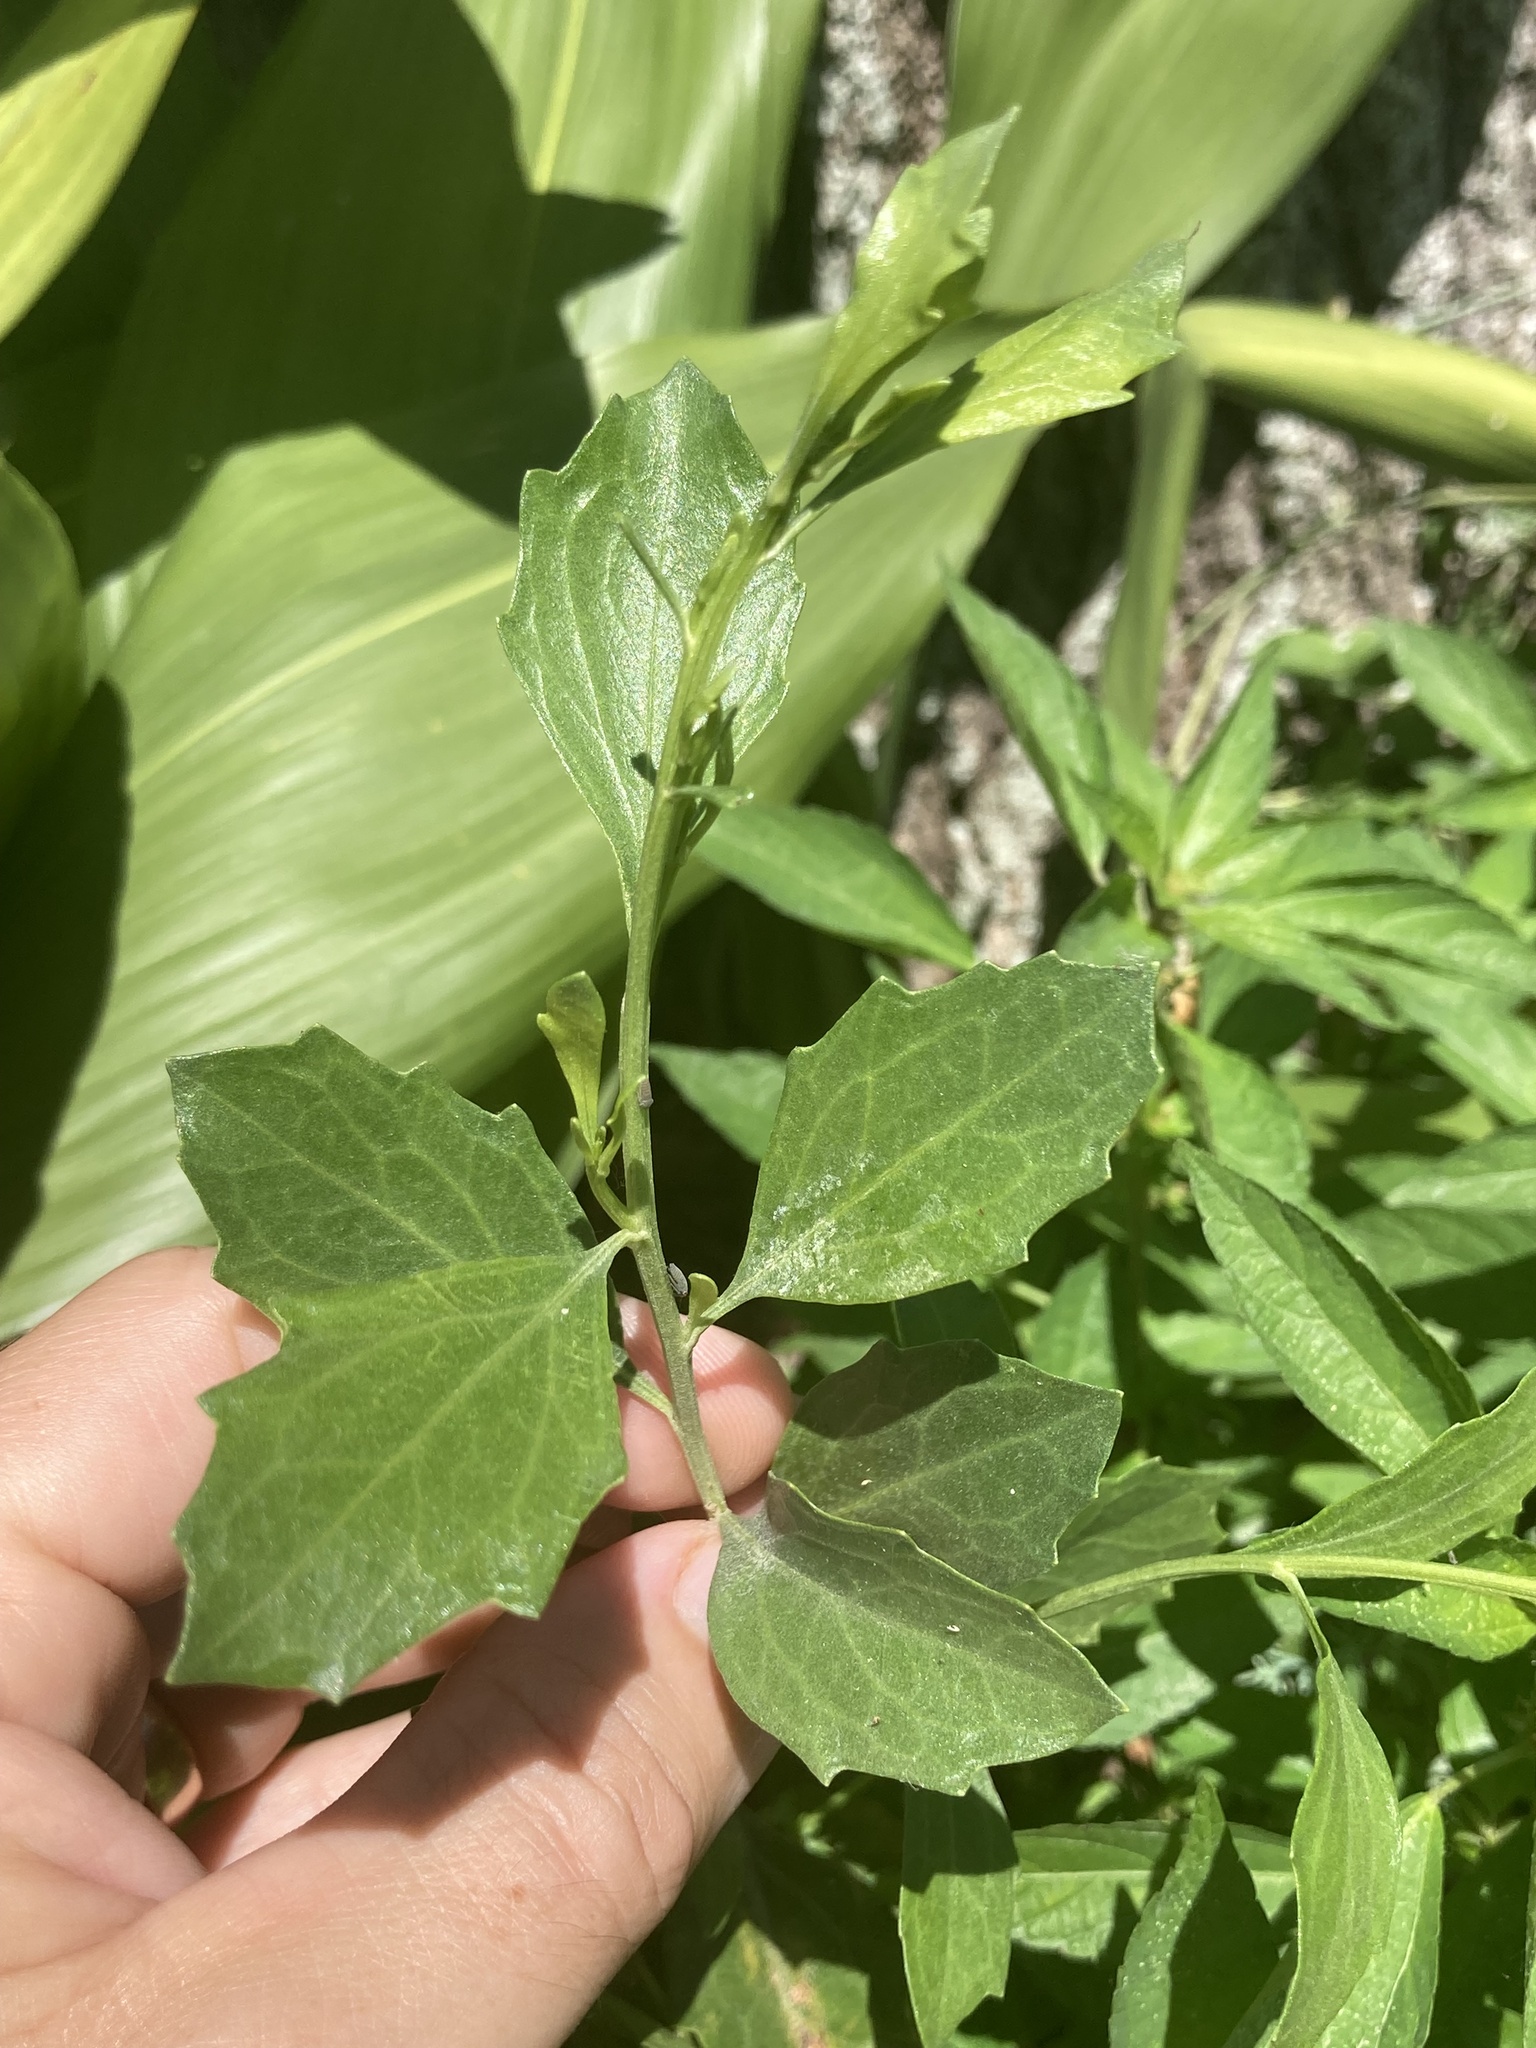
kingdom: Plantae
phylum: Tracheophyta
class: Magnoliopsida
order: Asterales
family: Asteraceae
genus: Baccharis
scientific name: Baccharis halimifolia
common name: Eastern baccharis
